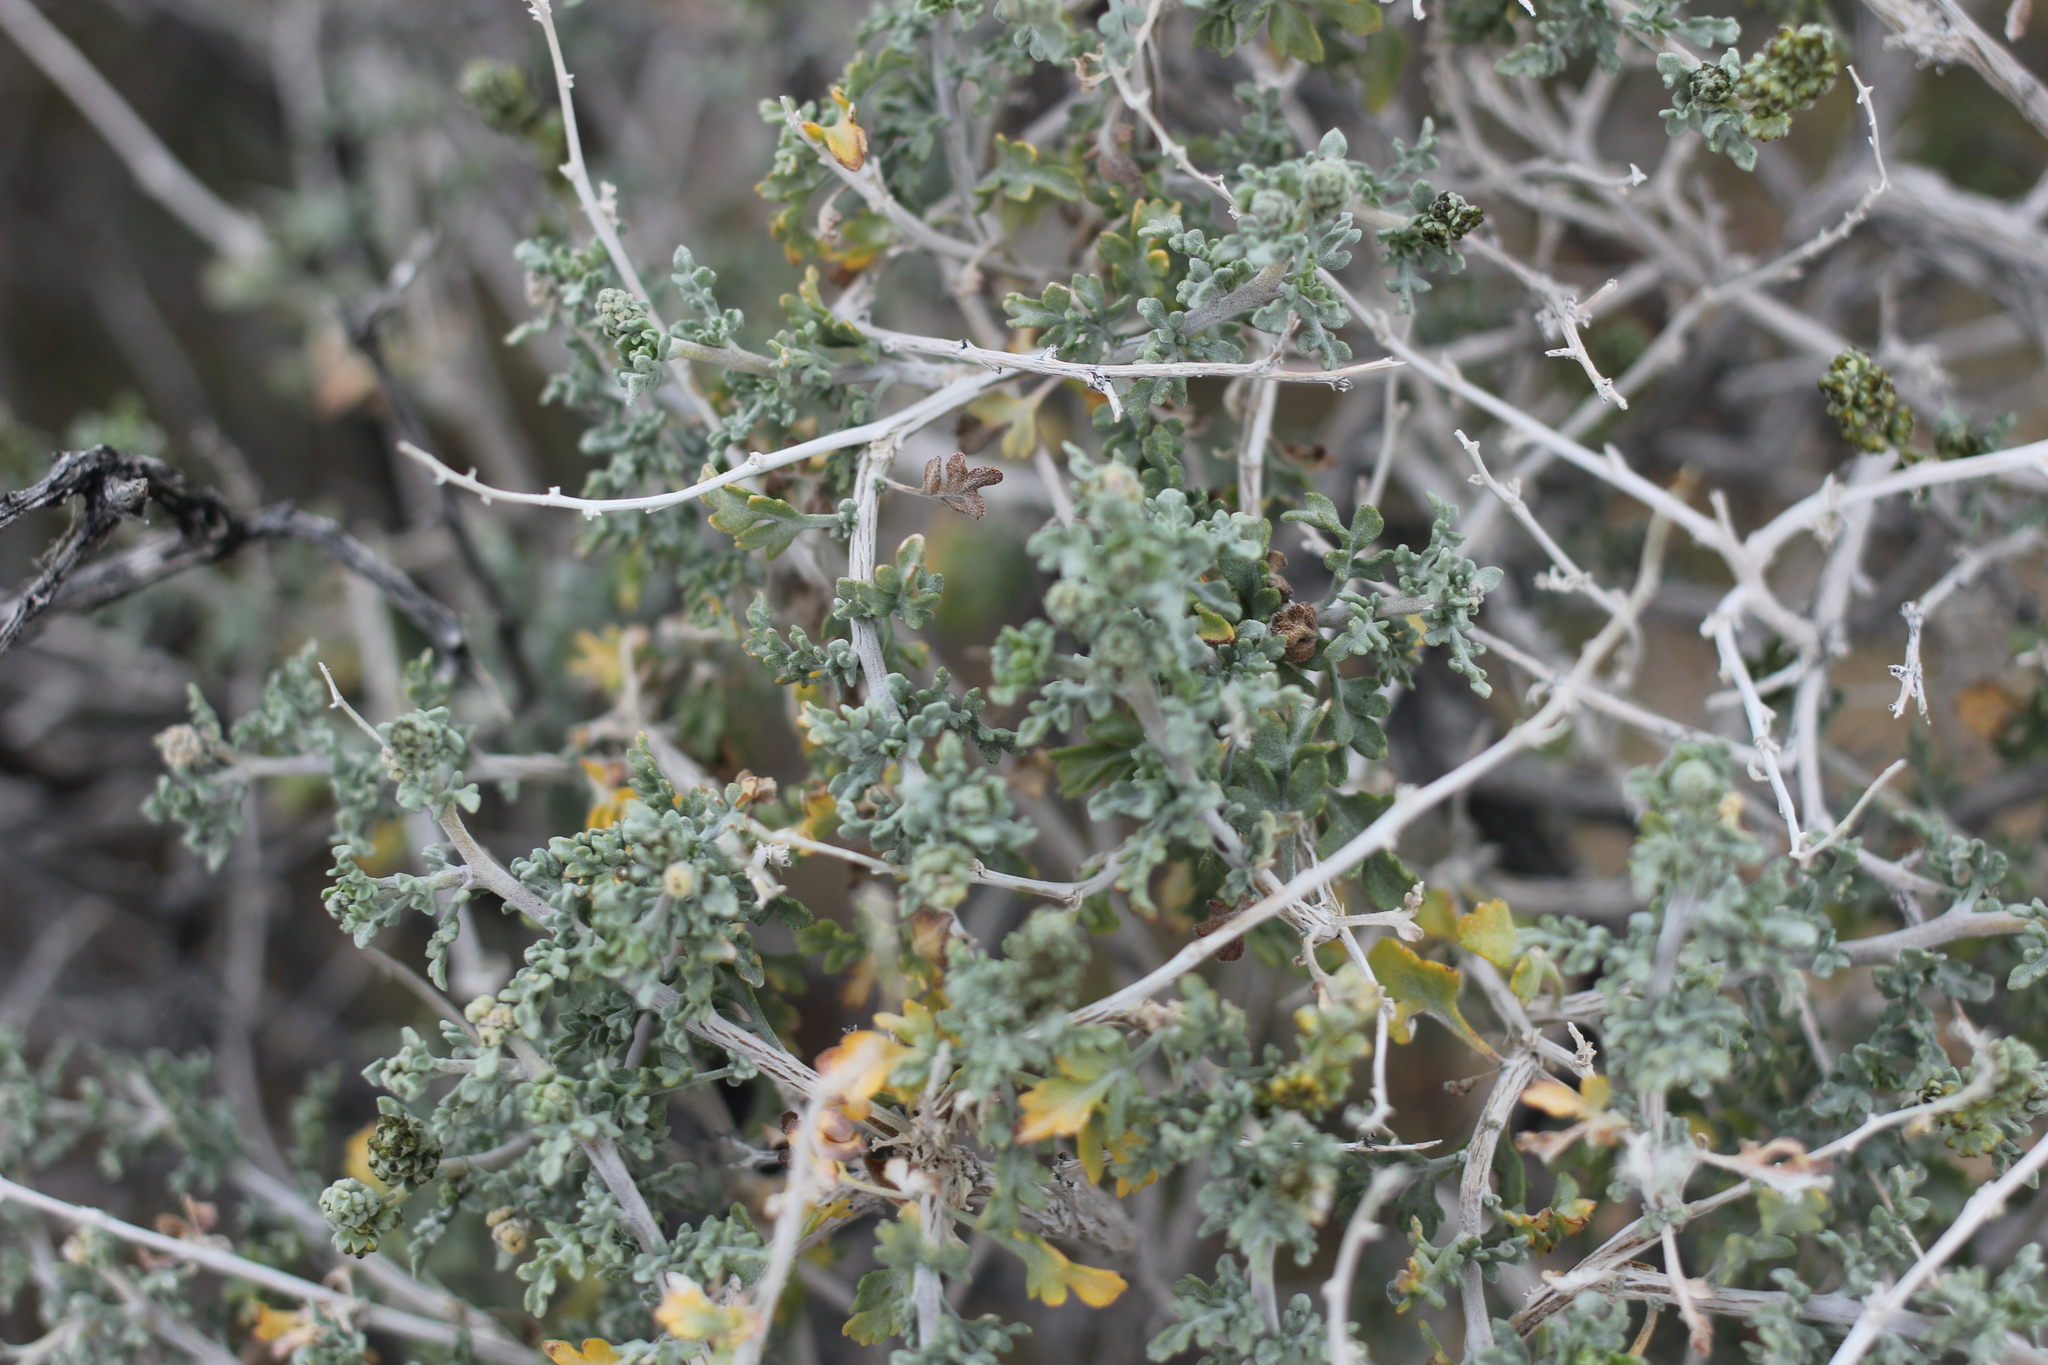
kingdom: Plantae
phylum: Tracheophyta
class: Magnoliopsida
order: Asterales
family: Asteraceae
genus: Ambrosia
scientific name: Ambrosia dumosa
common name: Bur-sage
